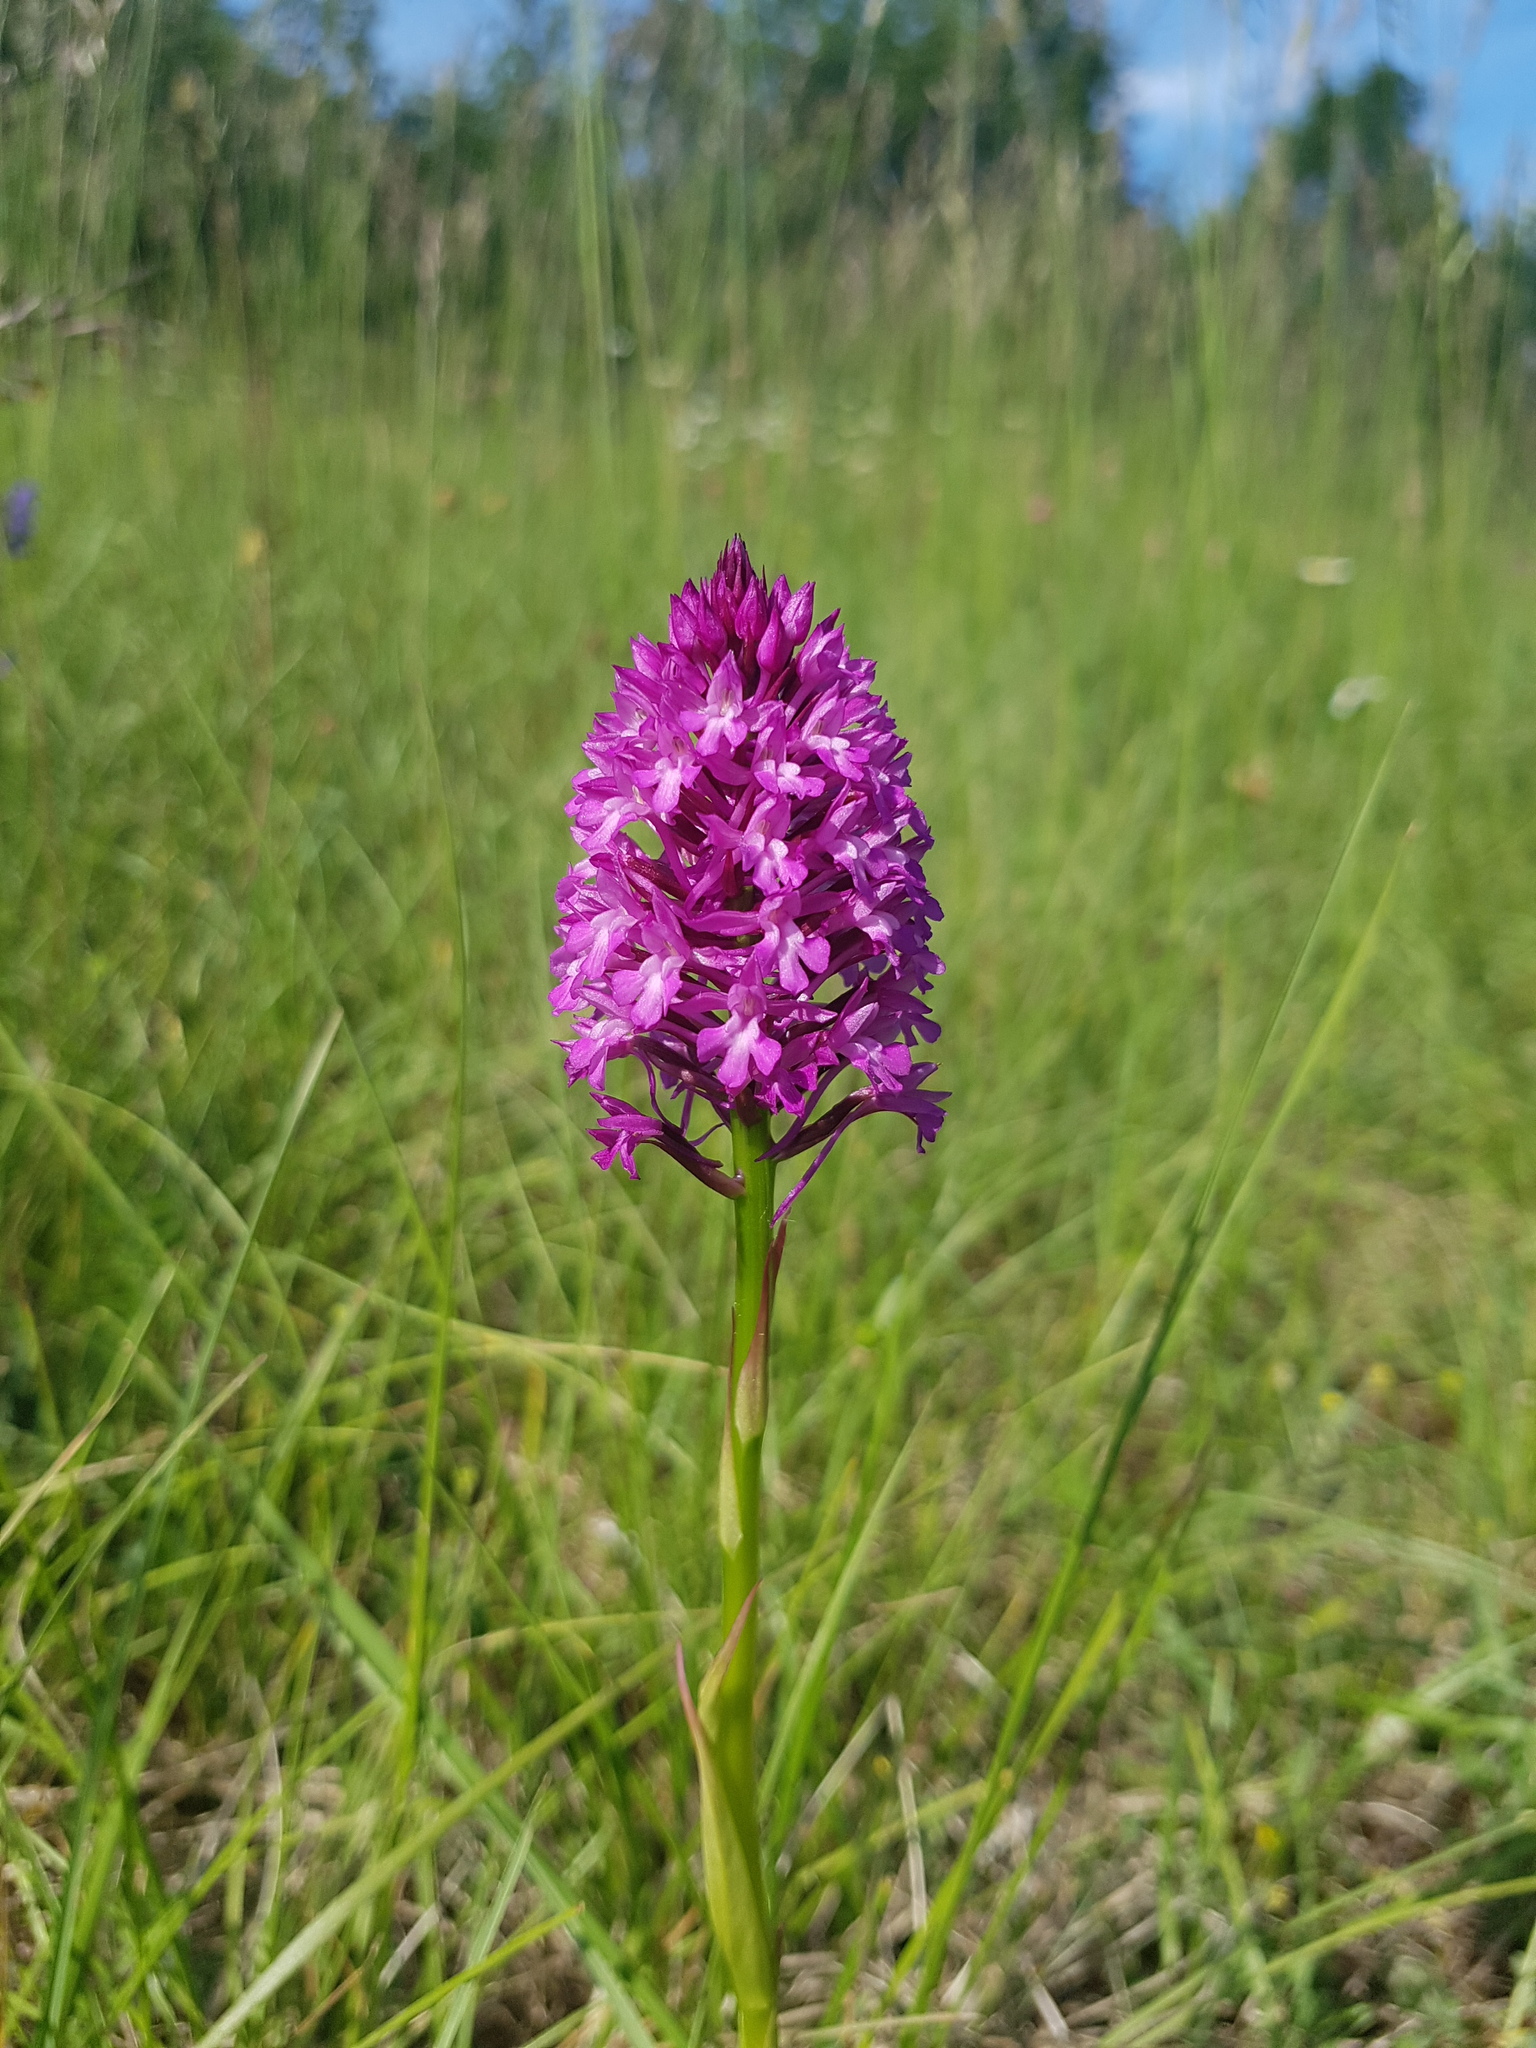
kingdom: Plantae
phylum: Tracheophyta
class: Liliopsida
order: Asparagales
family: Orchidaceae
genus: Anacamptis
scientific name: Anacamptis pyramidalis
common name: Pyramidal orchid
